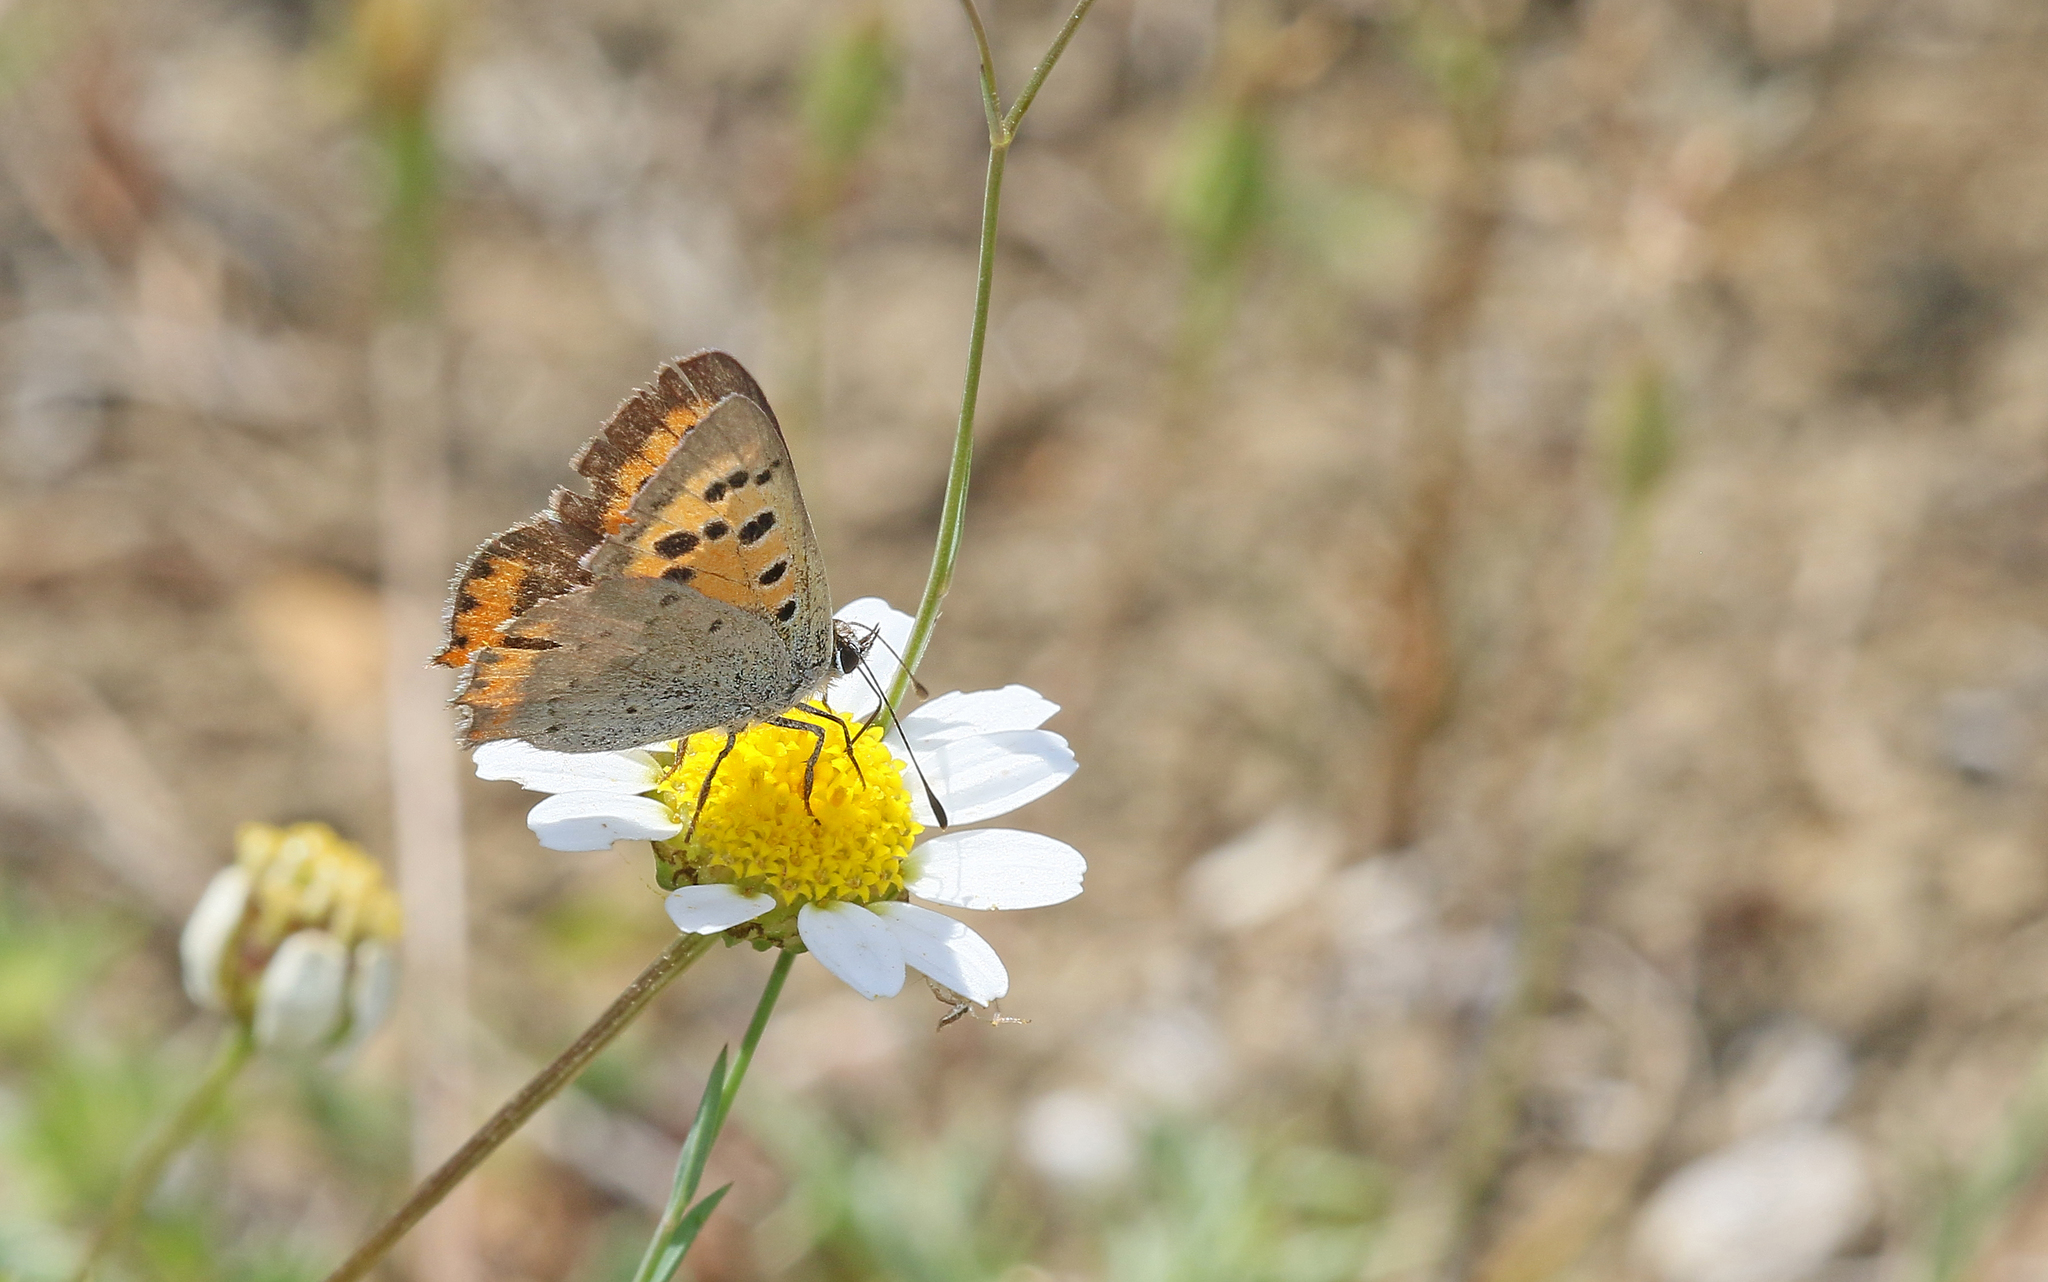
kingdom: Animalia
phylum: Arthropoda
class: Insecta
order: Lepidoptera
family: Lycaenidae
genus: Lycaena
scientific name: Lycaena phlaeas
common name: Small copper
